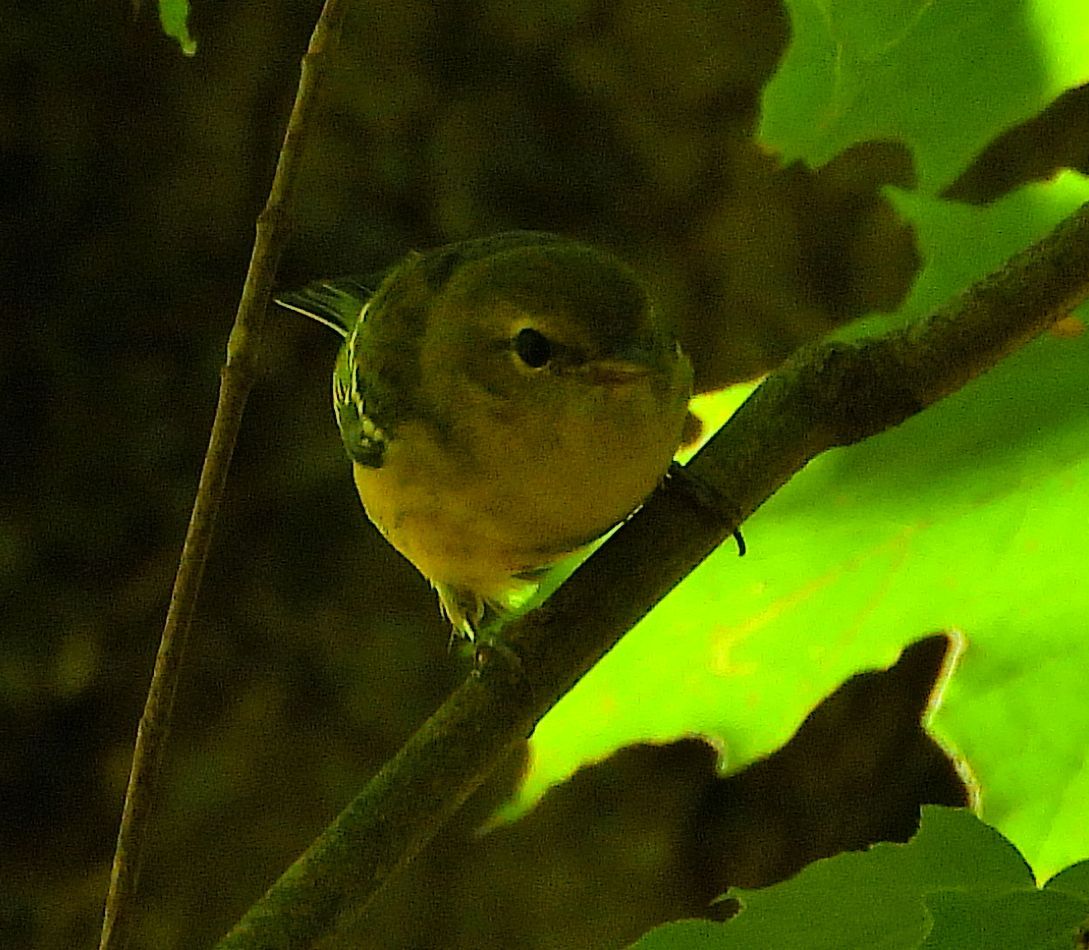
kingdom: Animalia
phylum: Chordata
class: Aves
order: Passeriformes
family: Parulidae
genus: Setophaga
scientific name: Setophaga castanea
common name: Bay-breasted warbler
